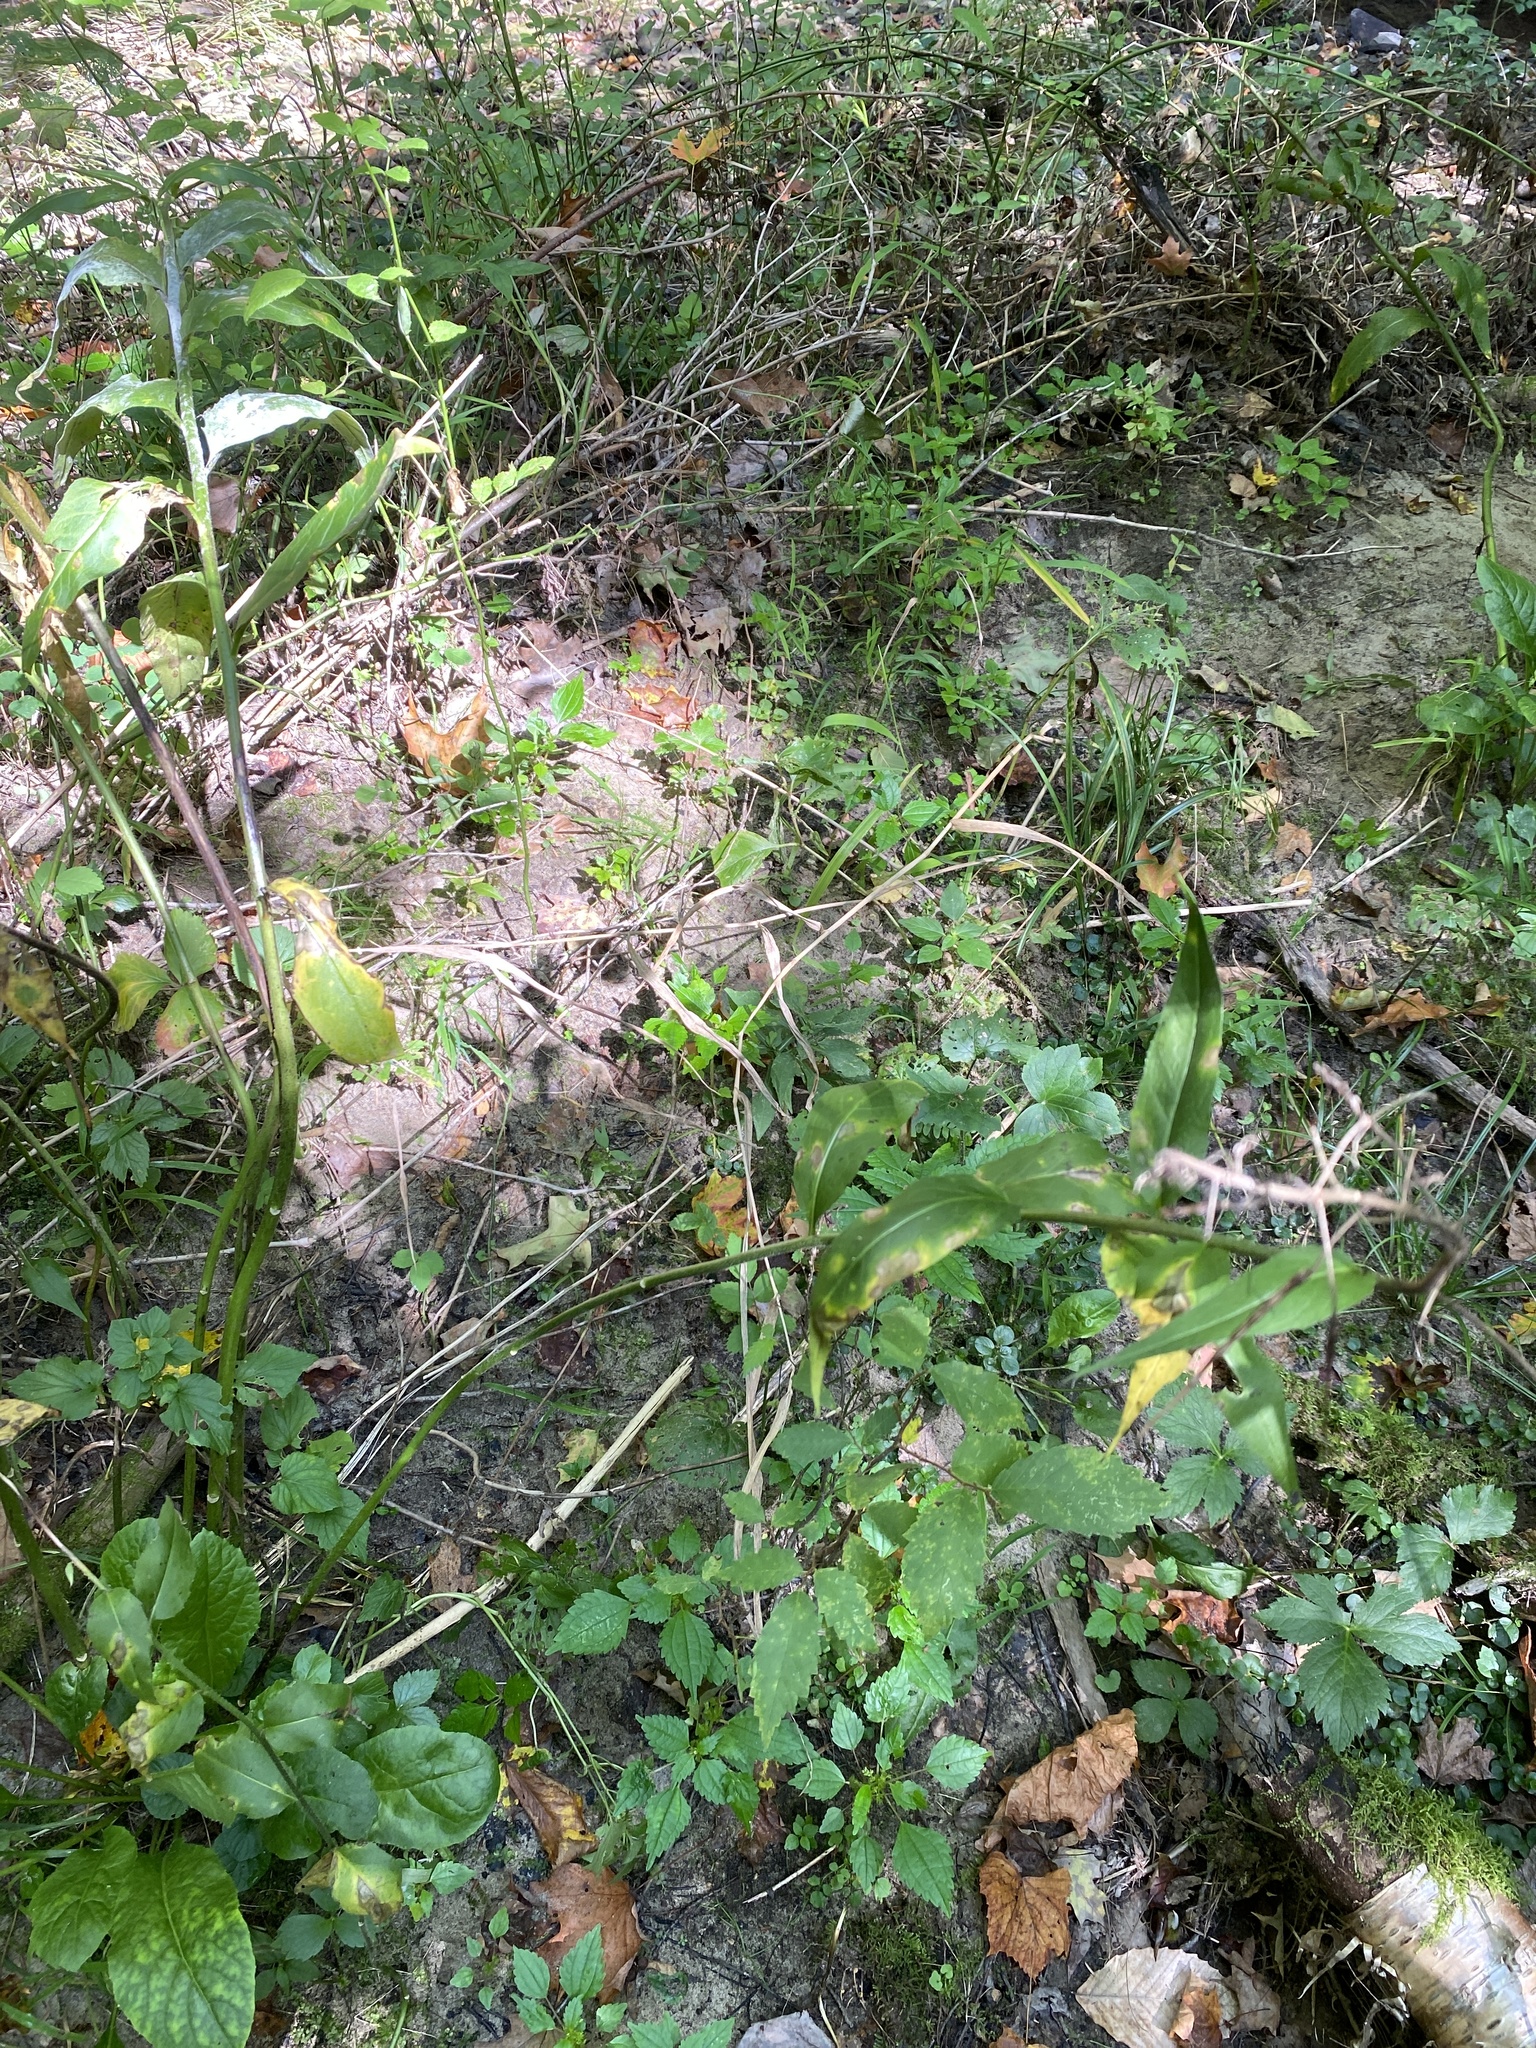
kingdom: Plantae
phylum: Tracheophyta
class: Magnoliopsida
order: Brassicales
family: Brassicaceae
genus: Hesperis
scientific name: Hesperis matronalis
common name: Dame's-violet
